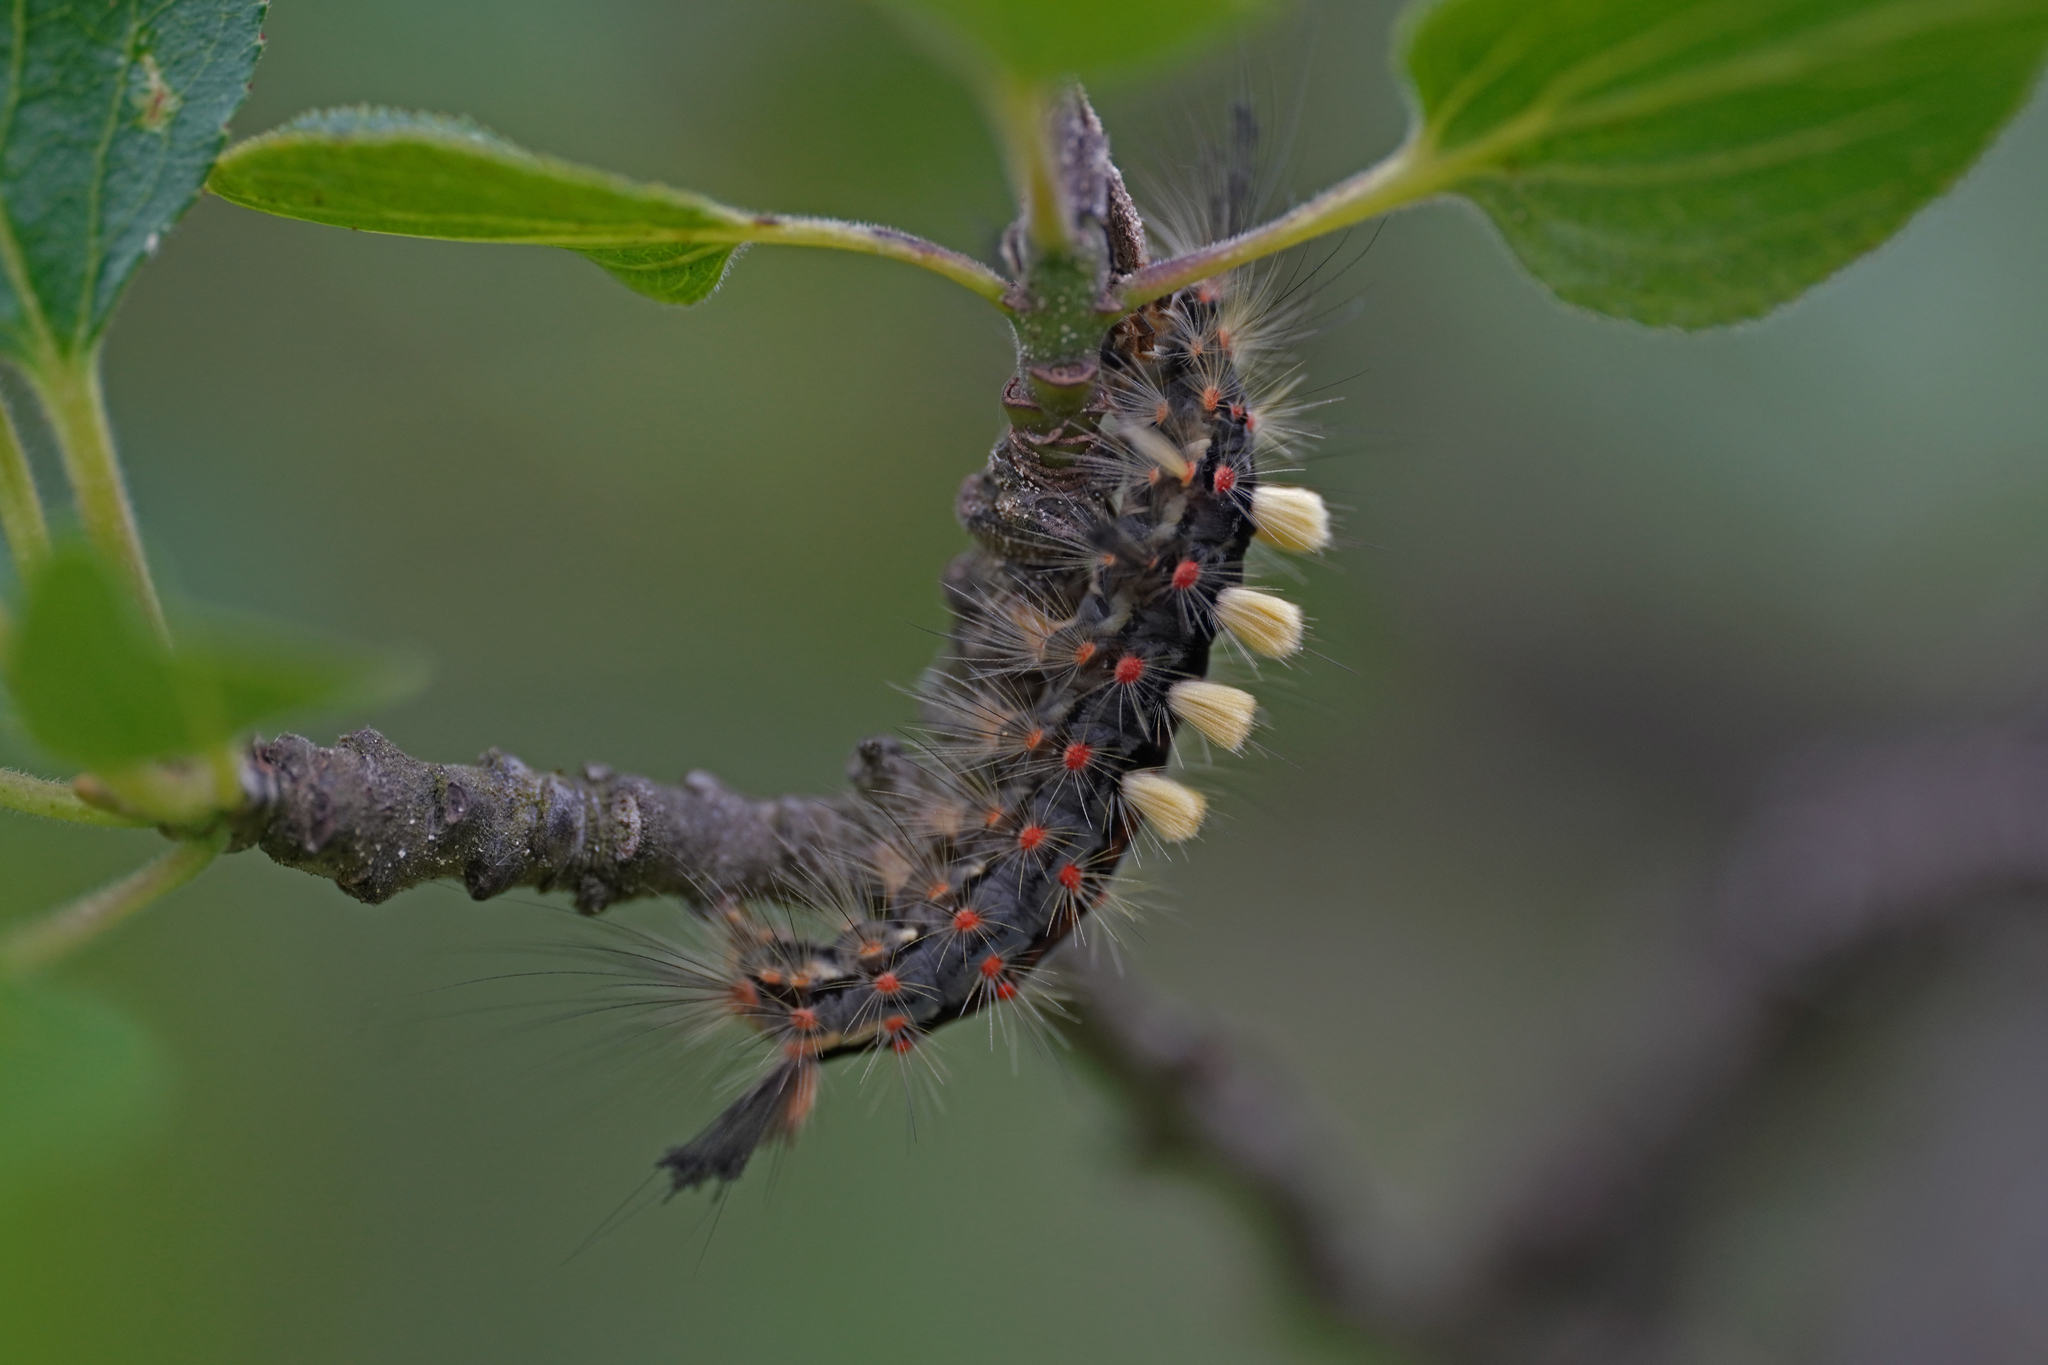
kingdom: Animalia
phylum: Arthropoda
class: Insecta
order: Lepidoptera
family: Erebidae
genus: Orgyia
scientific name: Orgyia antiqua
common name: Vapourer
